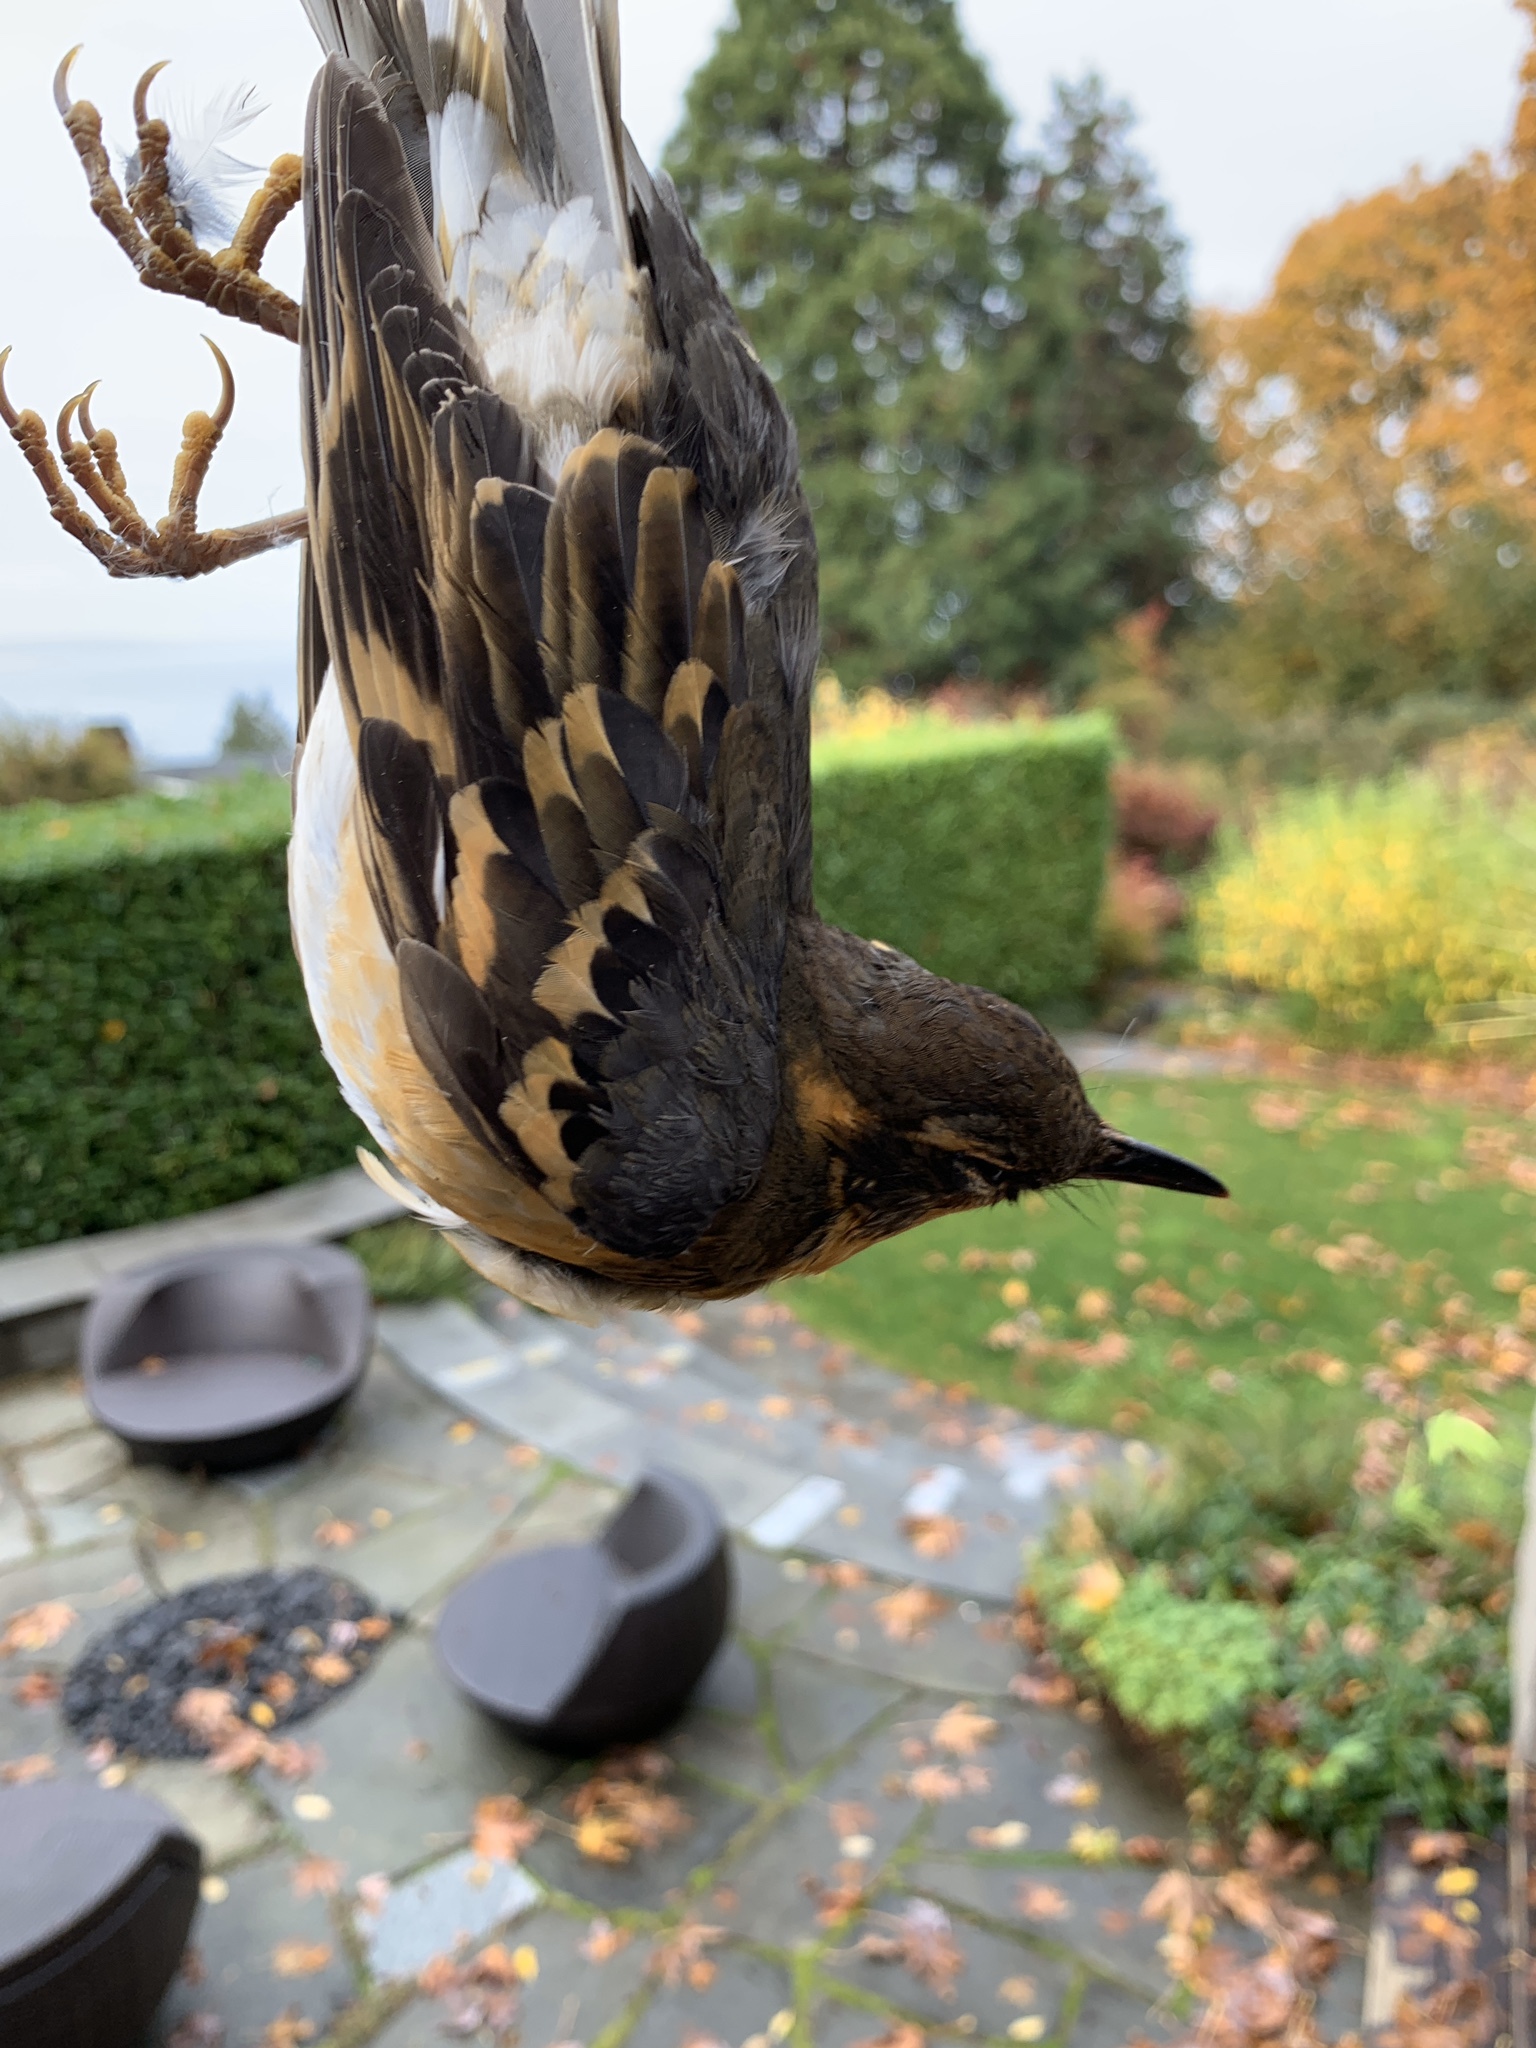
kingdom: Animalia
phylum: Chordata
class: Aves
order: Passeriformes
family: Turdidae
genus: Ixoreus
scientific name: Ixoreus naevius
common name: Varied thrush
